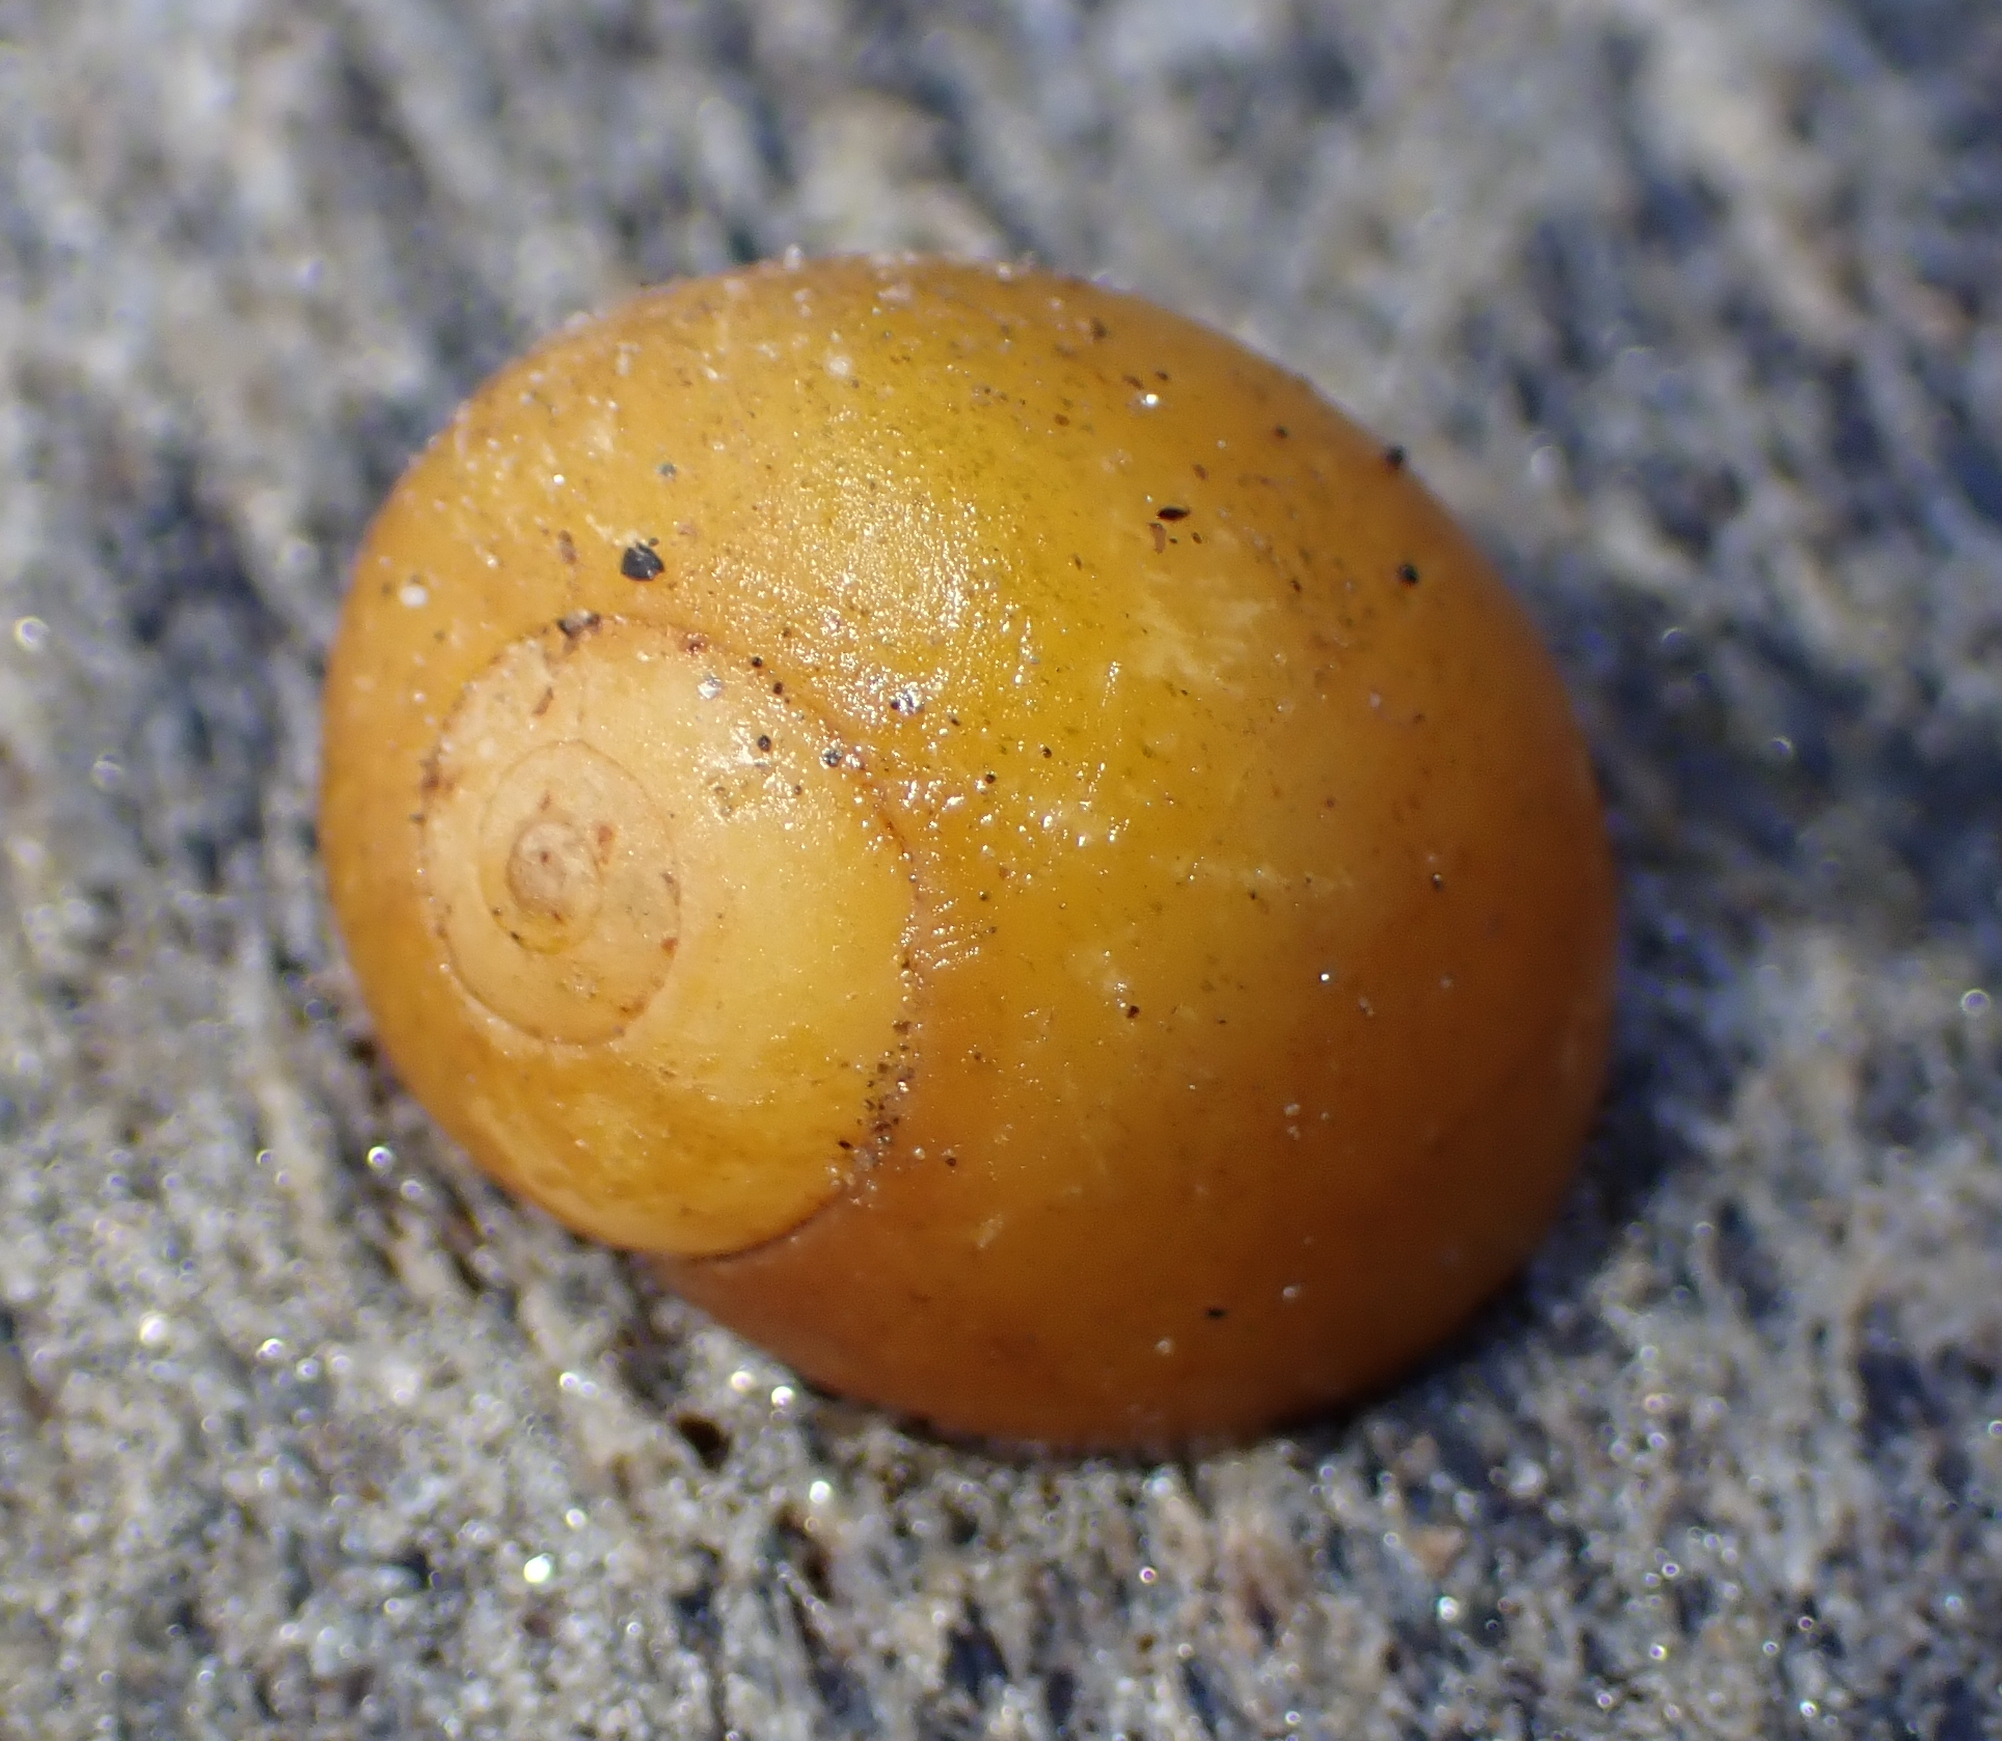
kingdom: Animalia
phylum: Mollusca
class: Gastropoda
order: Littorinimorpha
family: Littorinidae
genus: Littorina
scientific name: Littorina obtusata
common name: Flat periwinkle
